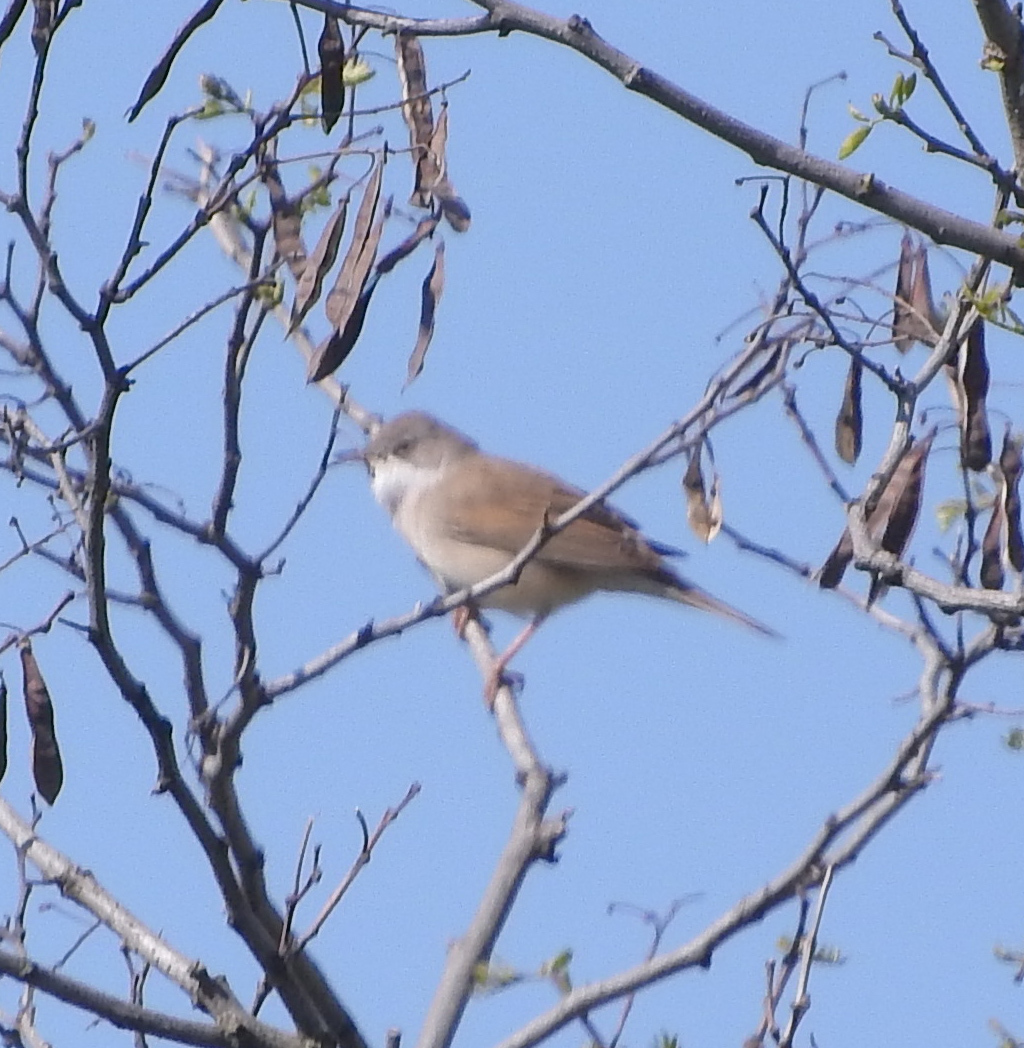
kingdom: Animalia
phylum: Chordata
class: Aves
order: Passeriformes
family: Sylviidae
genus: Sylvia
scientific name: Sylvia communis
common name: Common whitethroat
